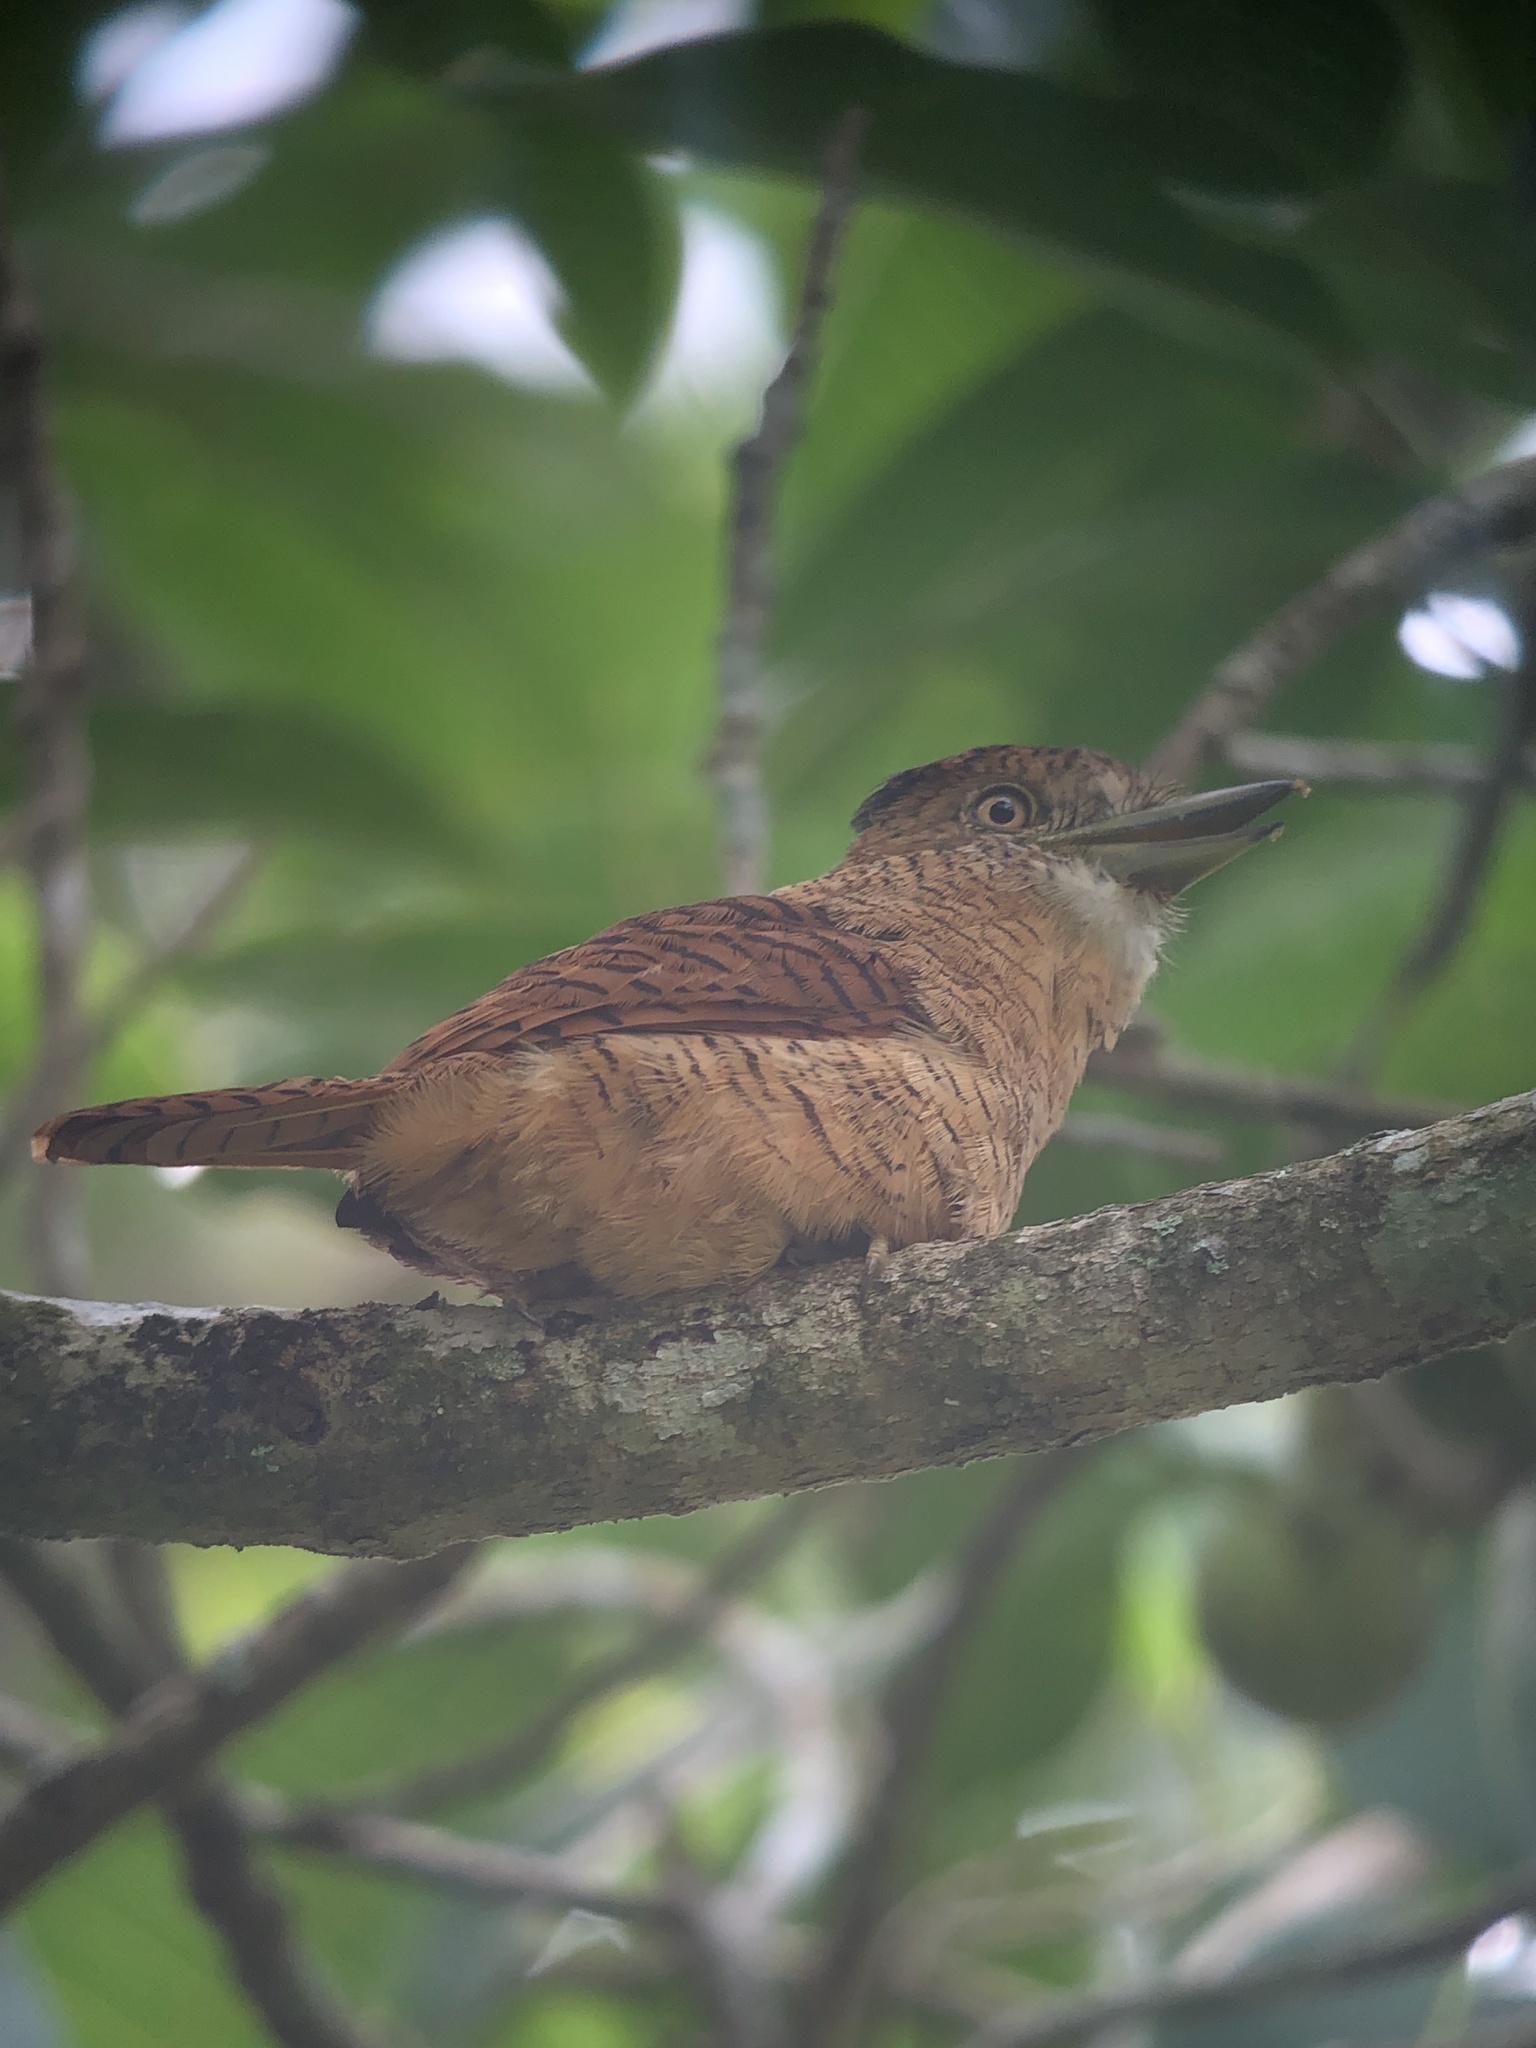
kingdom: Animalia
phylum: Chordata
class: Aves
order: Piciformes
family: Bucconidae
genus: Nystalus
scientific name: Nystalus radiatus
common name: Barred puffbird
